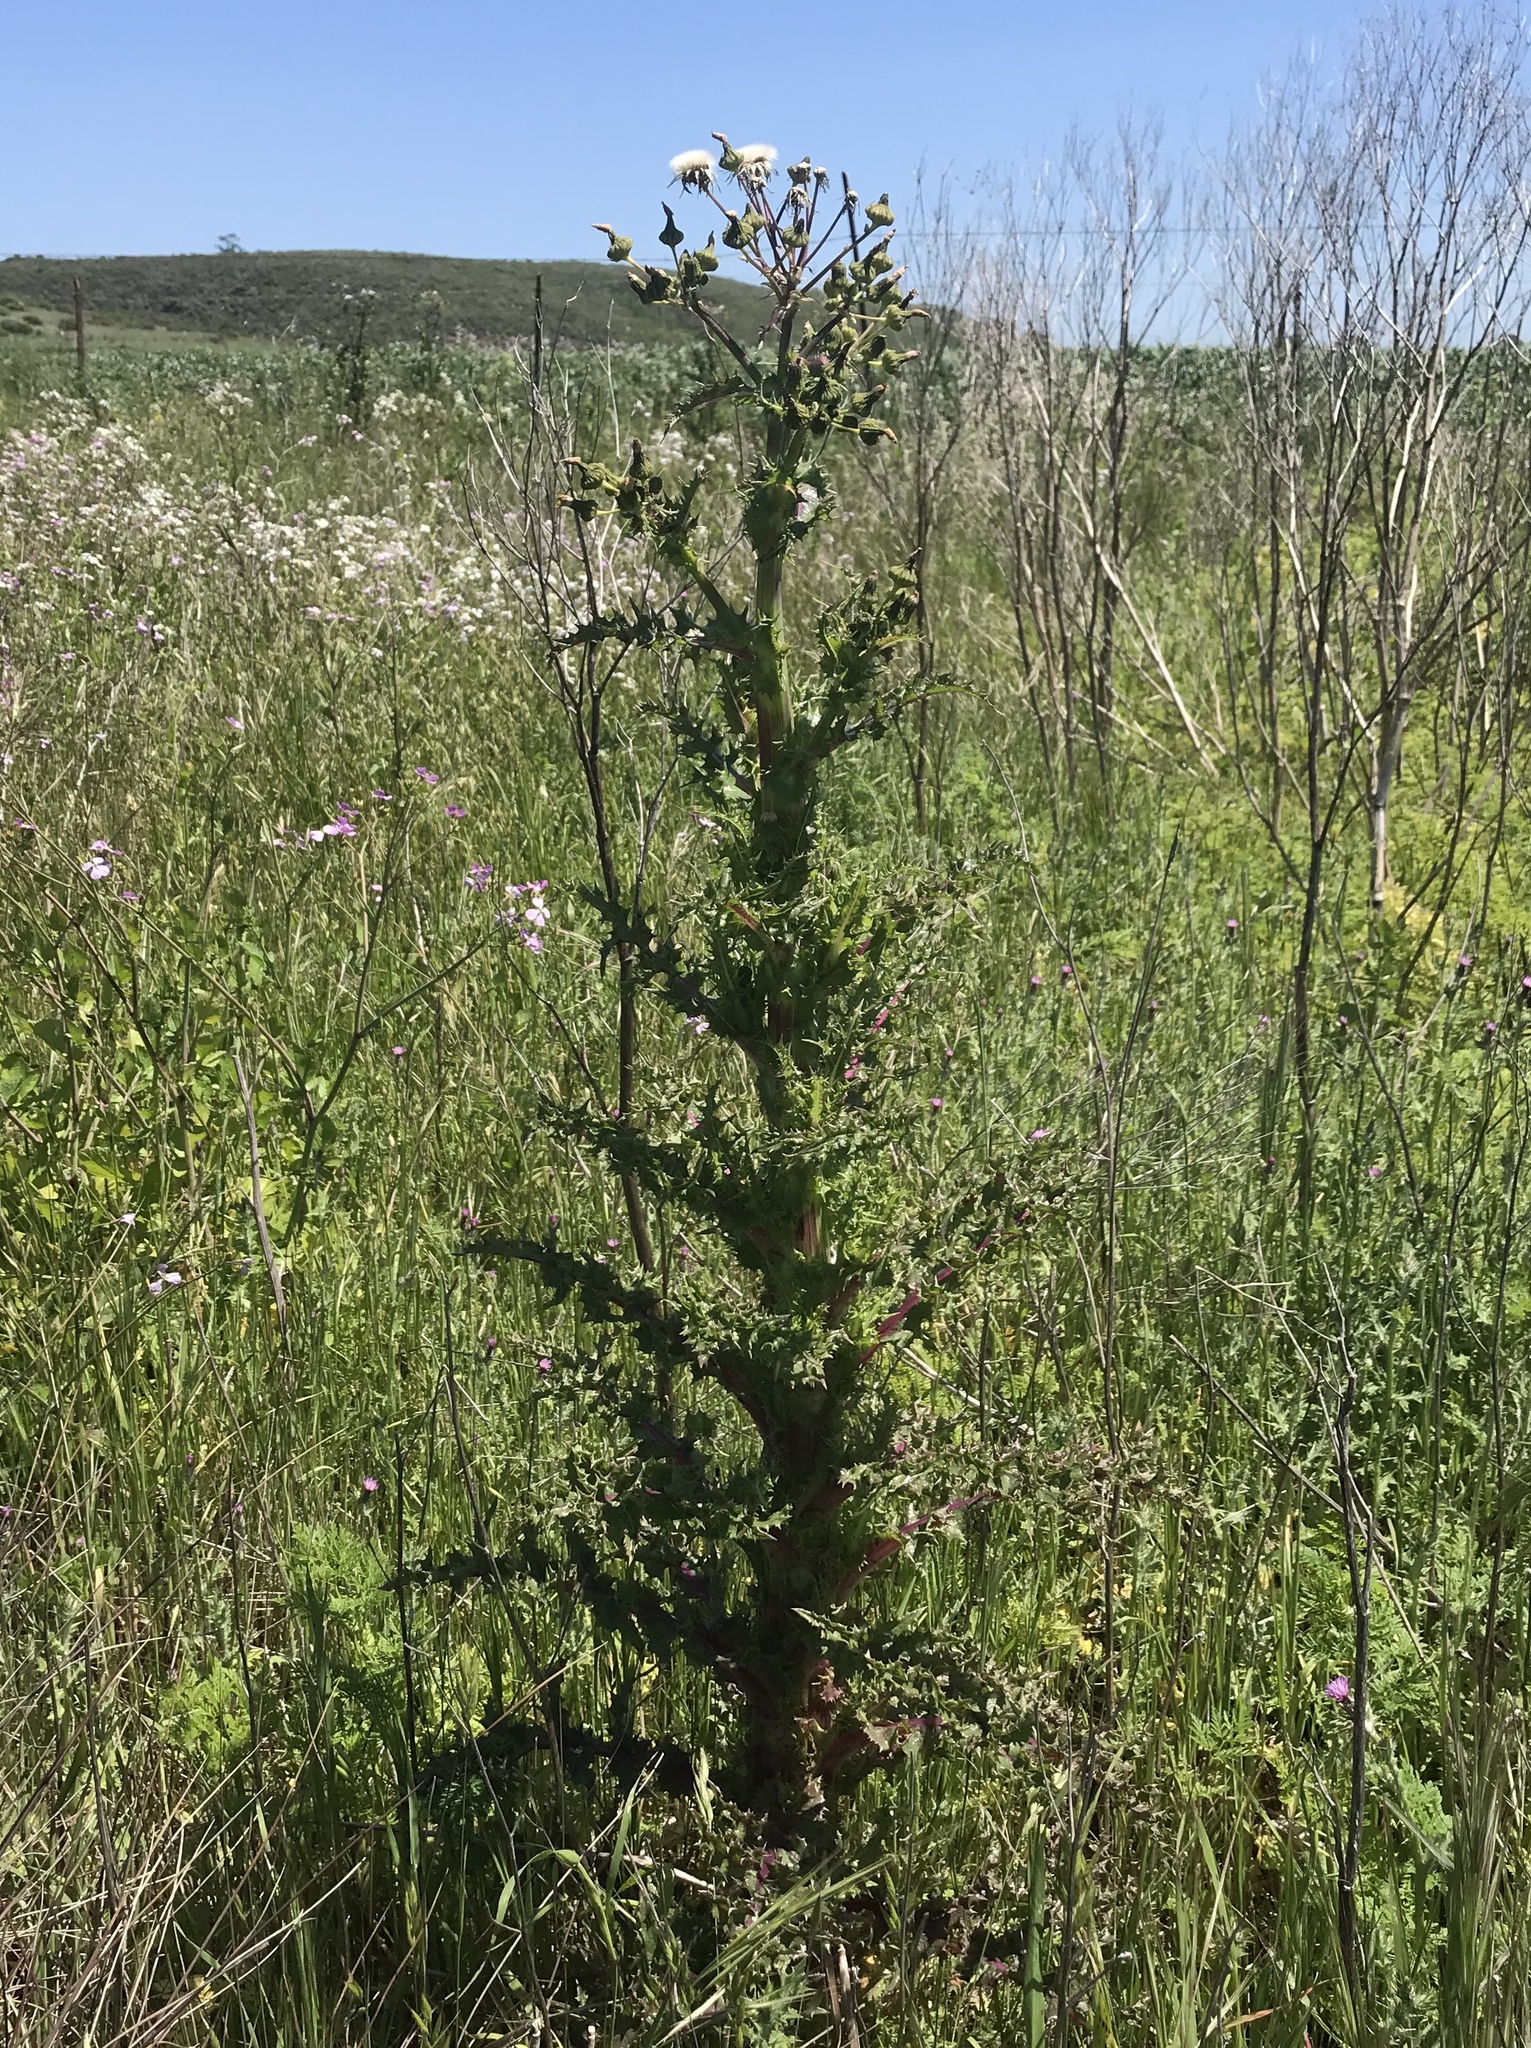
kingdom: Plantae
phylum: Tracheophyta
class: Magnoliopsida
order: Asterales
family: Asteraceae
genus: Sonchus
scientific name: Sonchus asper
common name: Prickly sow-thistle
